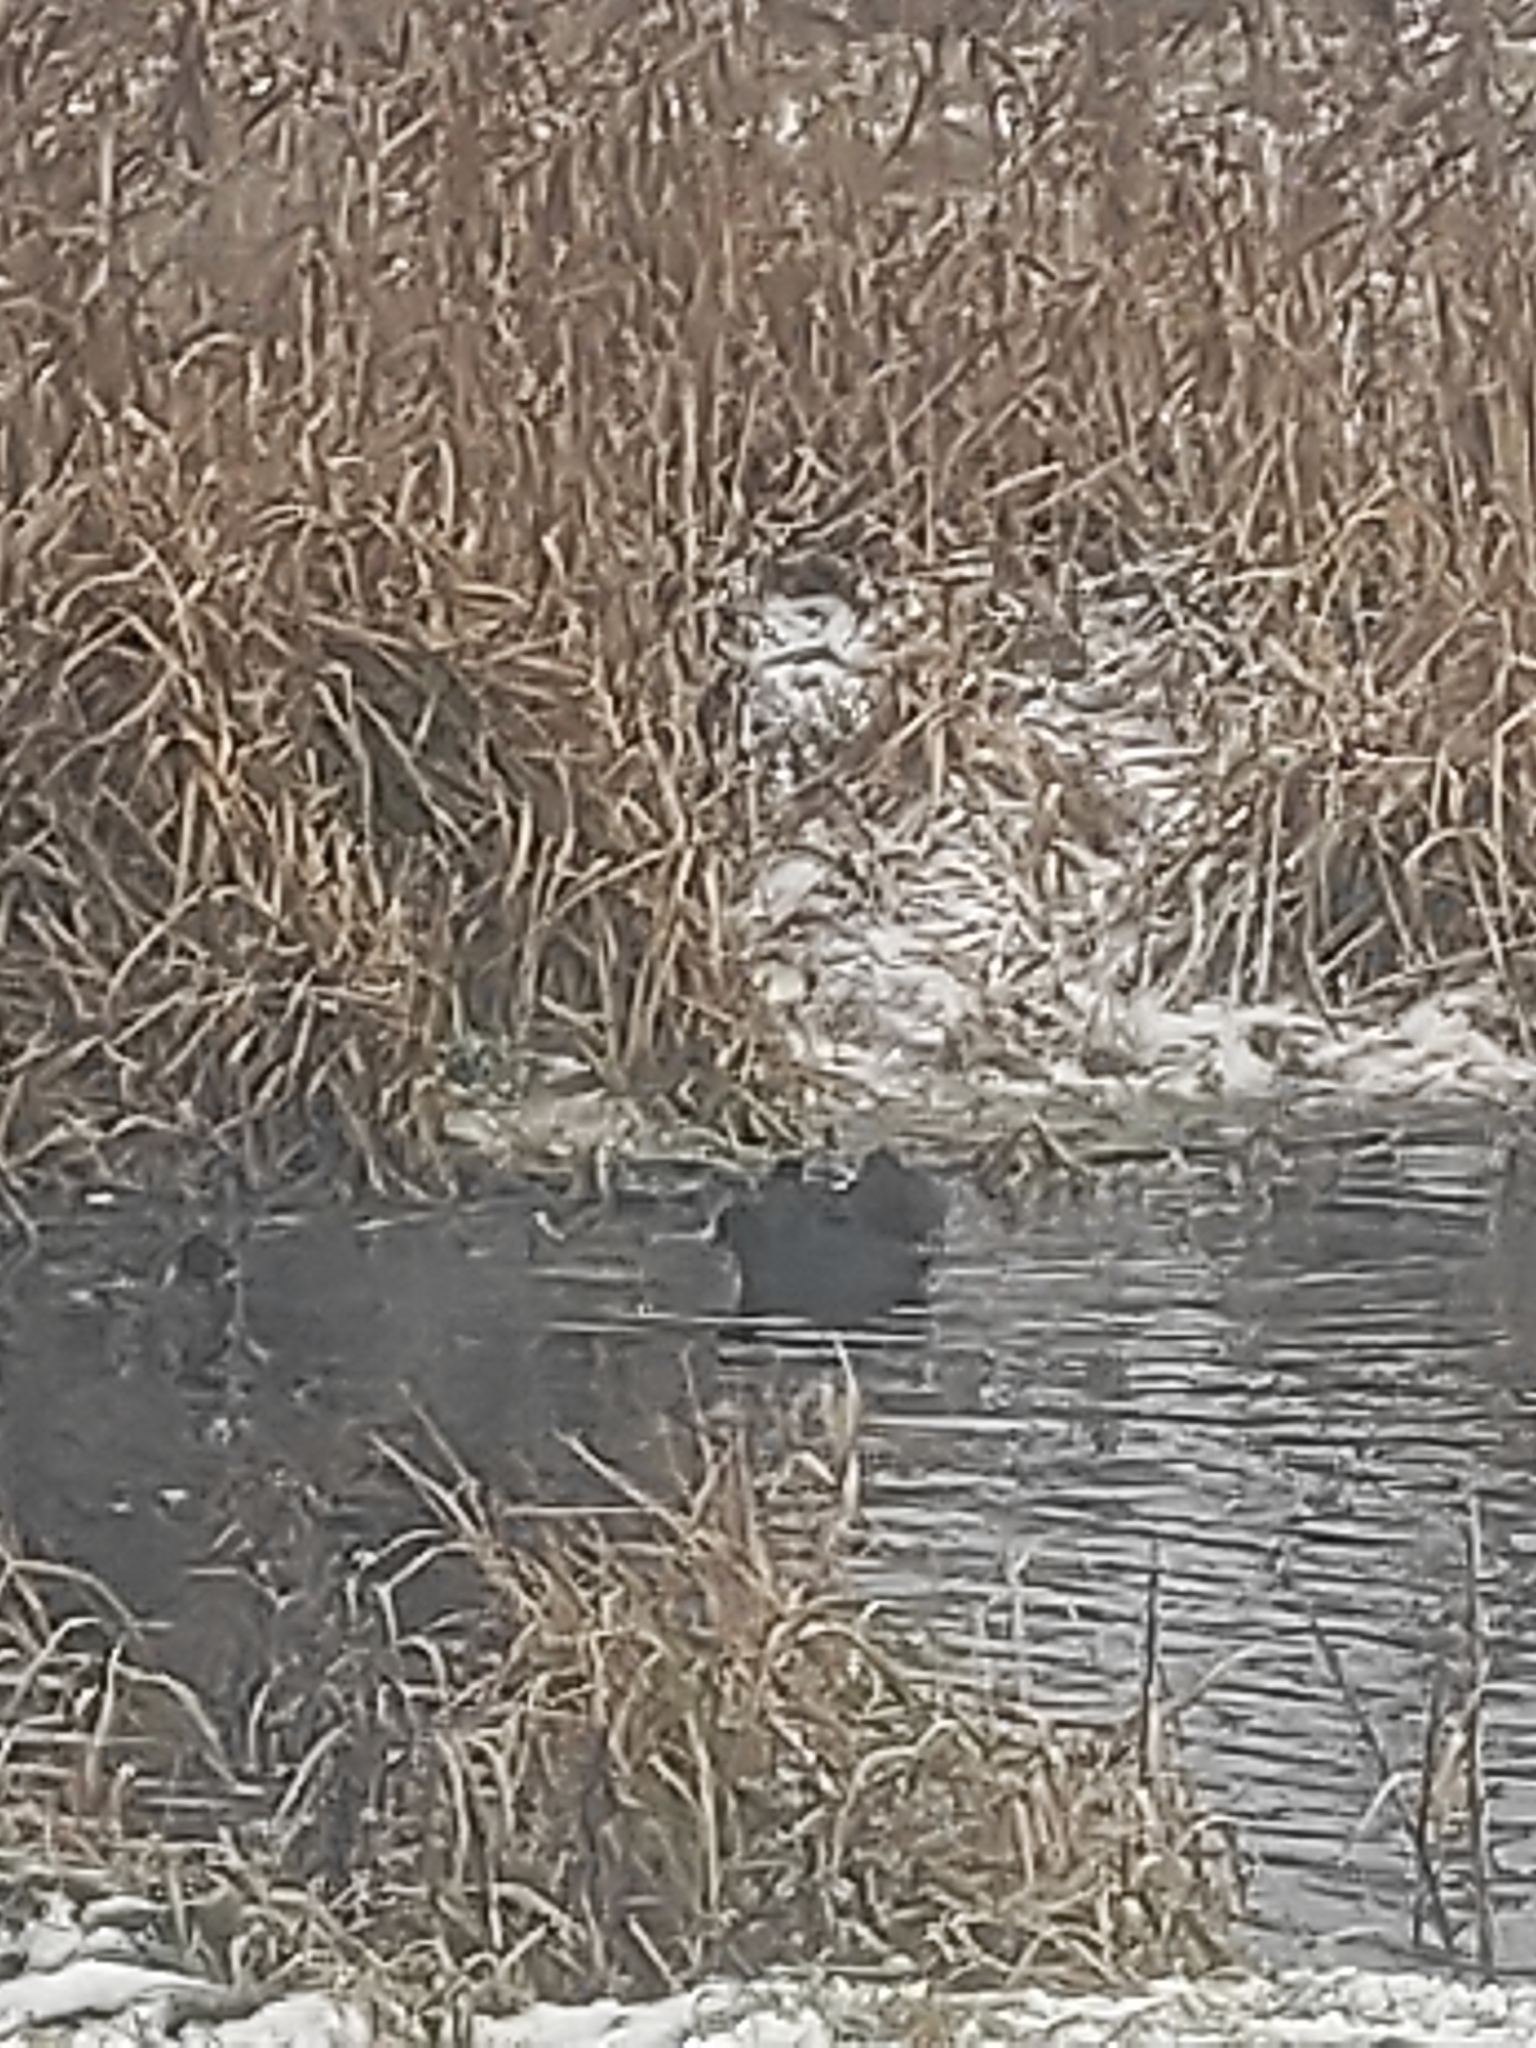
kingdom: Animalia
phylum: Chordata
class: Aves
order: Gruiformes
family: Rallidae
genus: Fulica
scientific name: Fulica atra
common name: Eurasian coot
